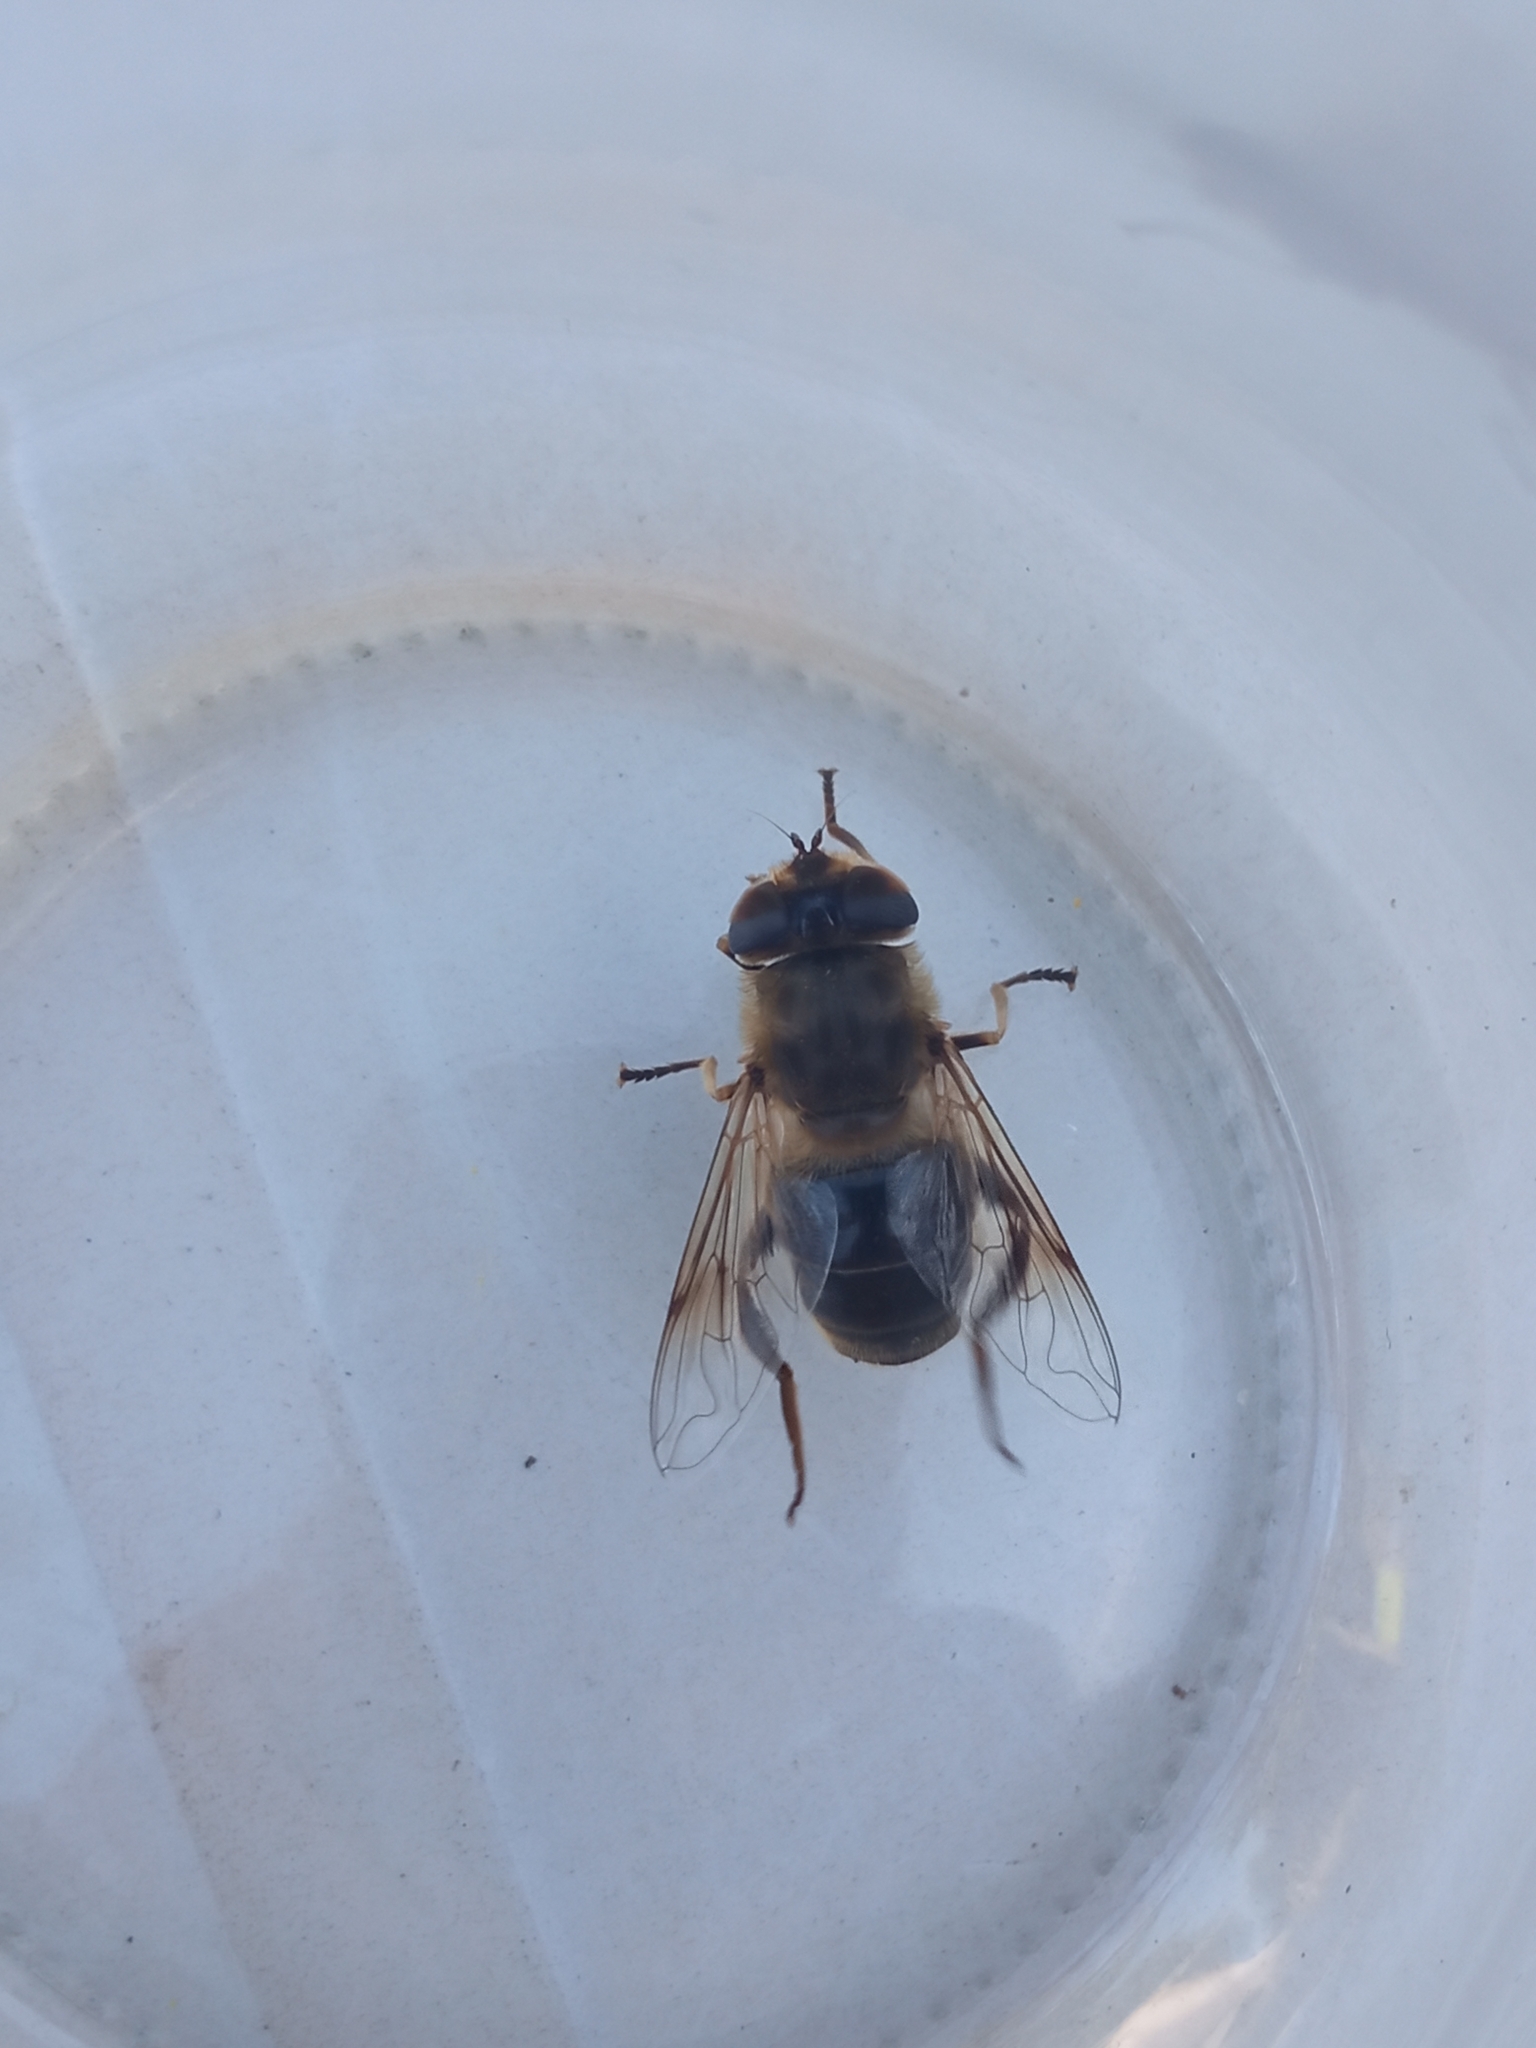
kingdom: Animalia
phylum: Arthropoda
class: Insecta
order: Diptera
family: Syrphidae
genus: Eristalis
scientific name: Eristalis tenax
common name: Drone fly
